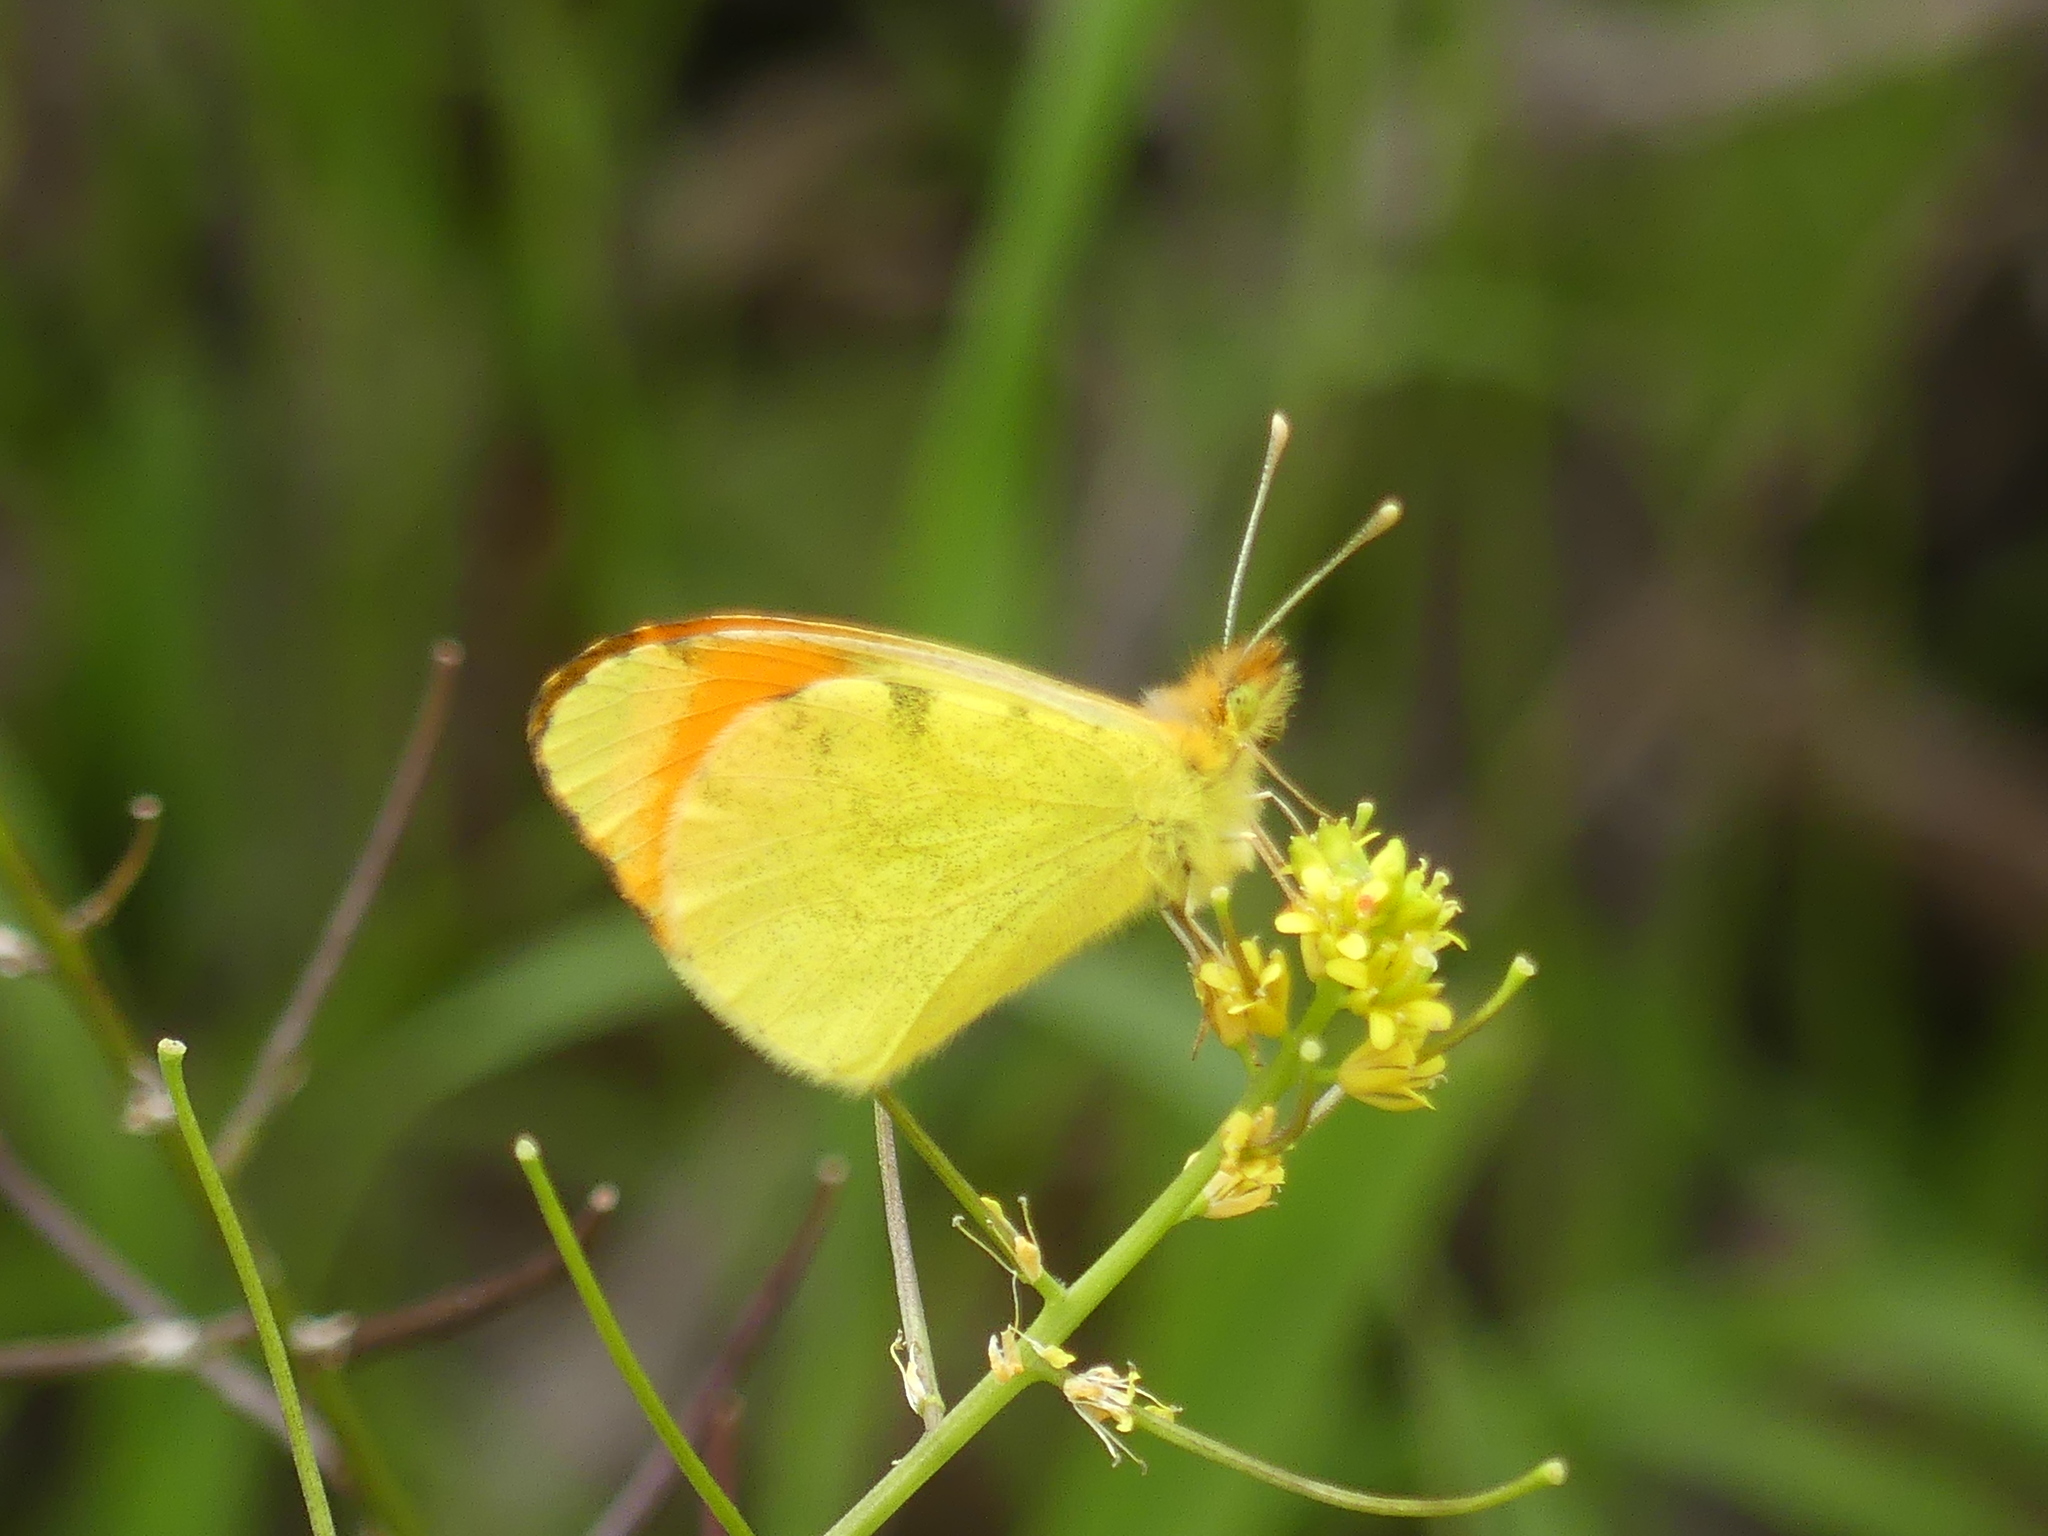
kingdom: Animalia
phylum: Arthropoda
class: Insecta
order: Lepidoptera
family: Pieridae
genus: Anthocharis
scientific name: Anthocharis belia
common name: Moroccan orange tip
